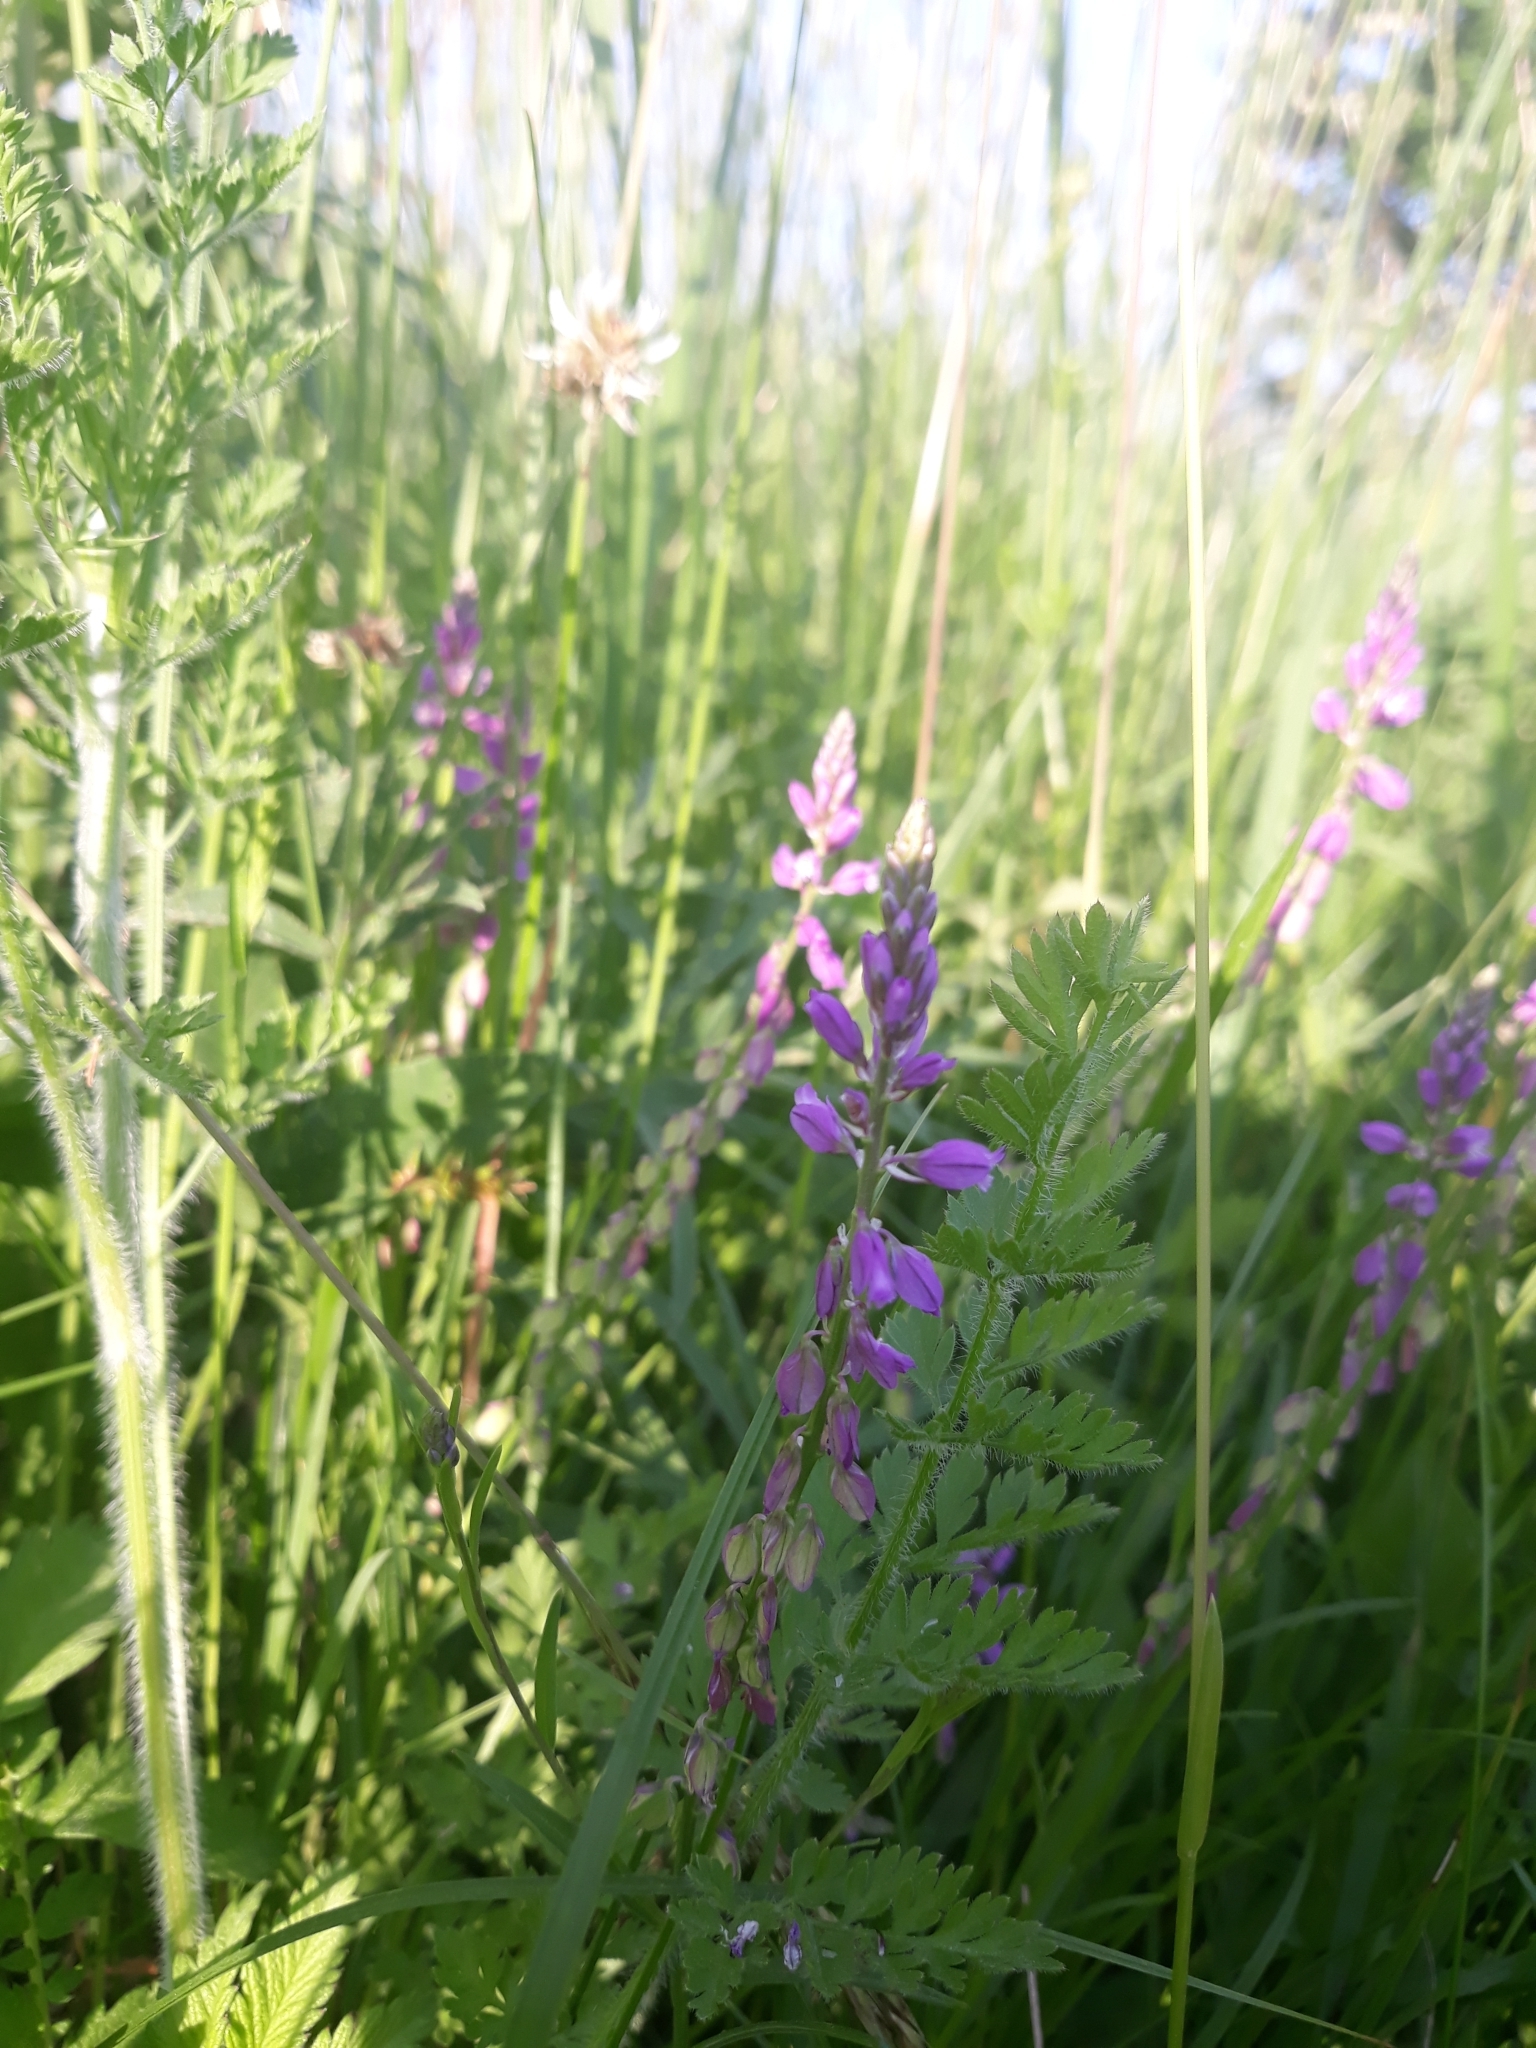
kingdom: Plantae
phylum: Tracheophyta
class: Magnoliopsida
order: Fabales
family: Polygalaceae
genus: Polygala
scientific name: Polygala comosa
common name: Tufted milkwort
